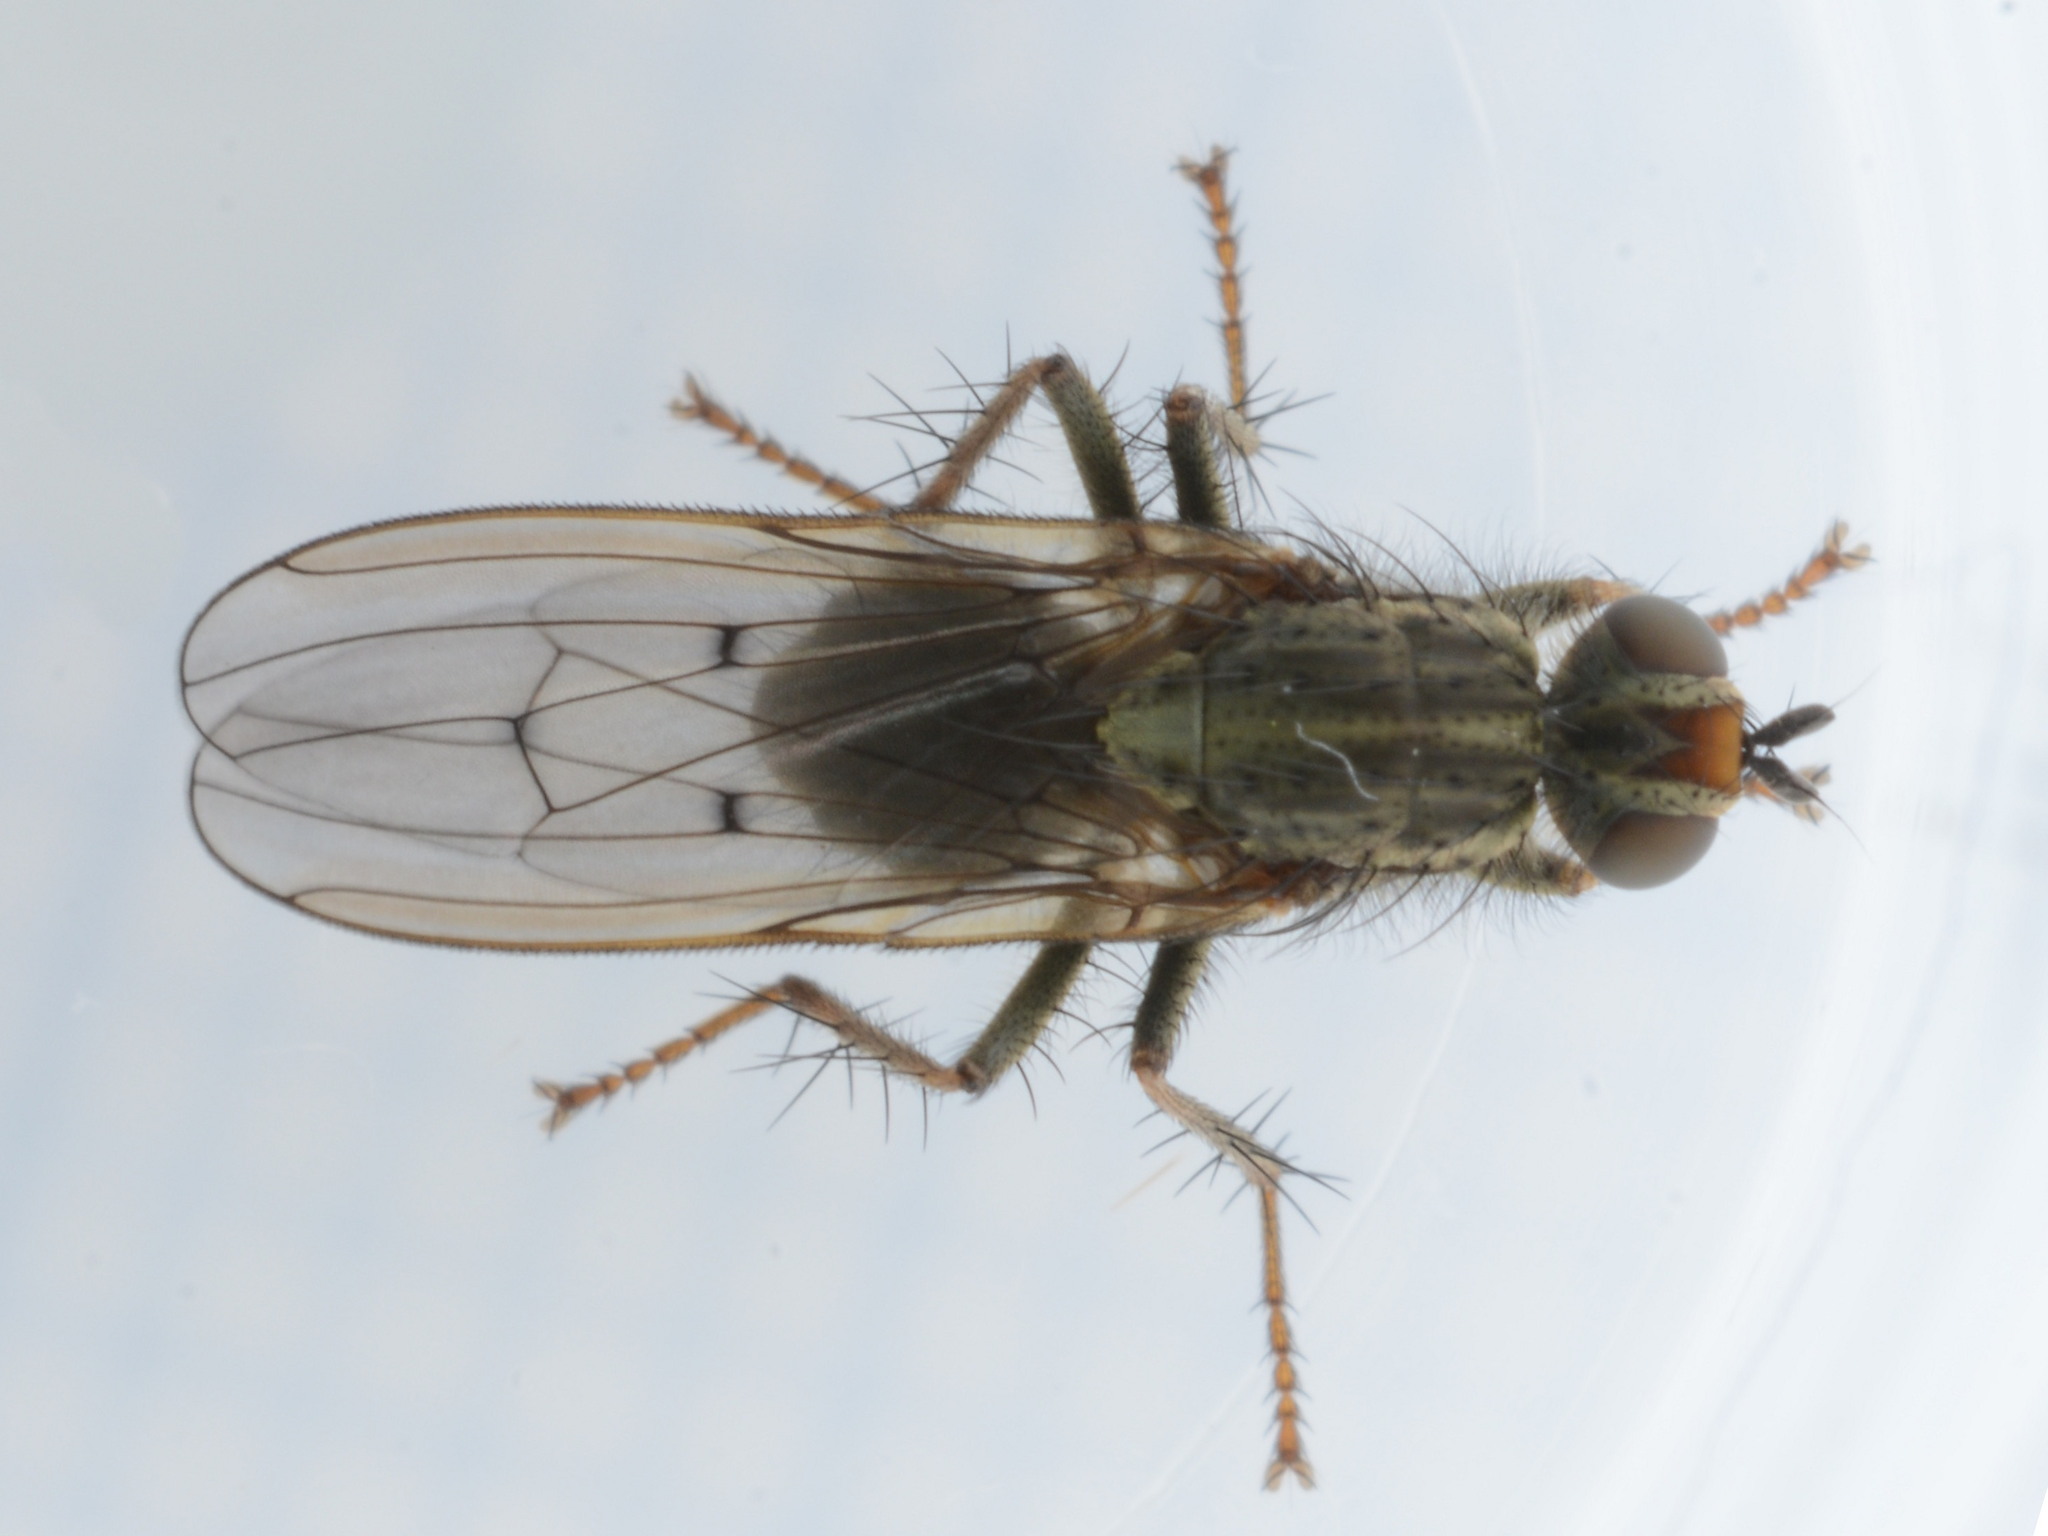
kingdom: Animalia
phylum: Arthropoda
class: Insecta
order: Diptera
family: Scathophagidae
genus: Scathophaga
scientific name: Scathophaga stercoraria
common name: Yellow dung fly
